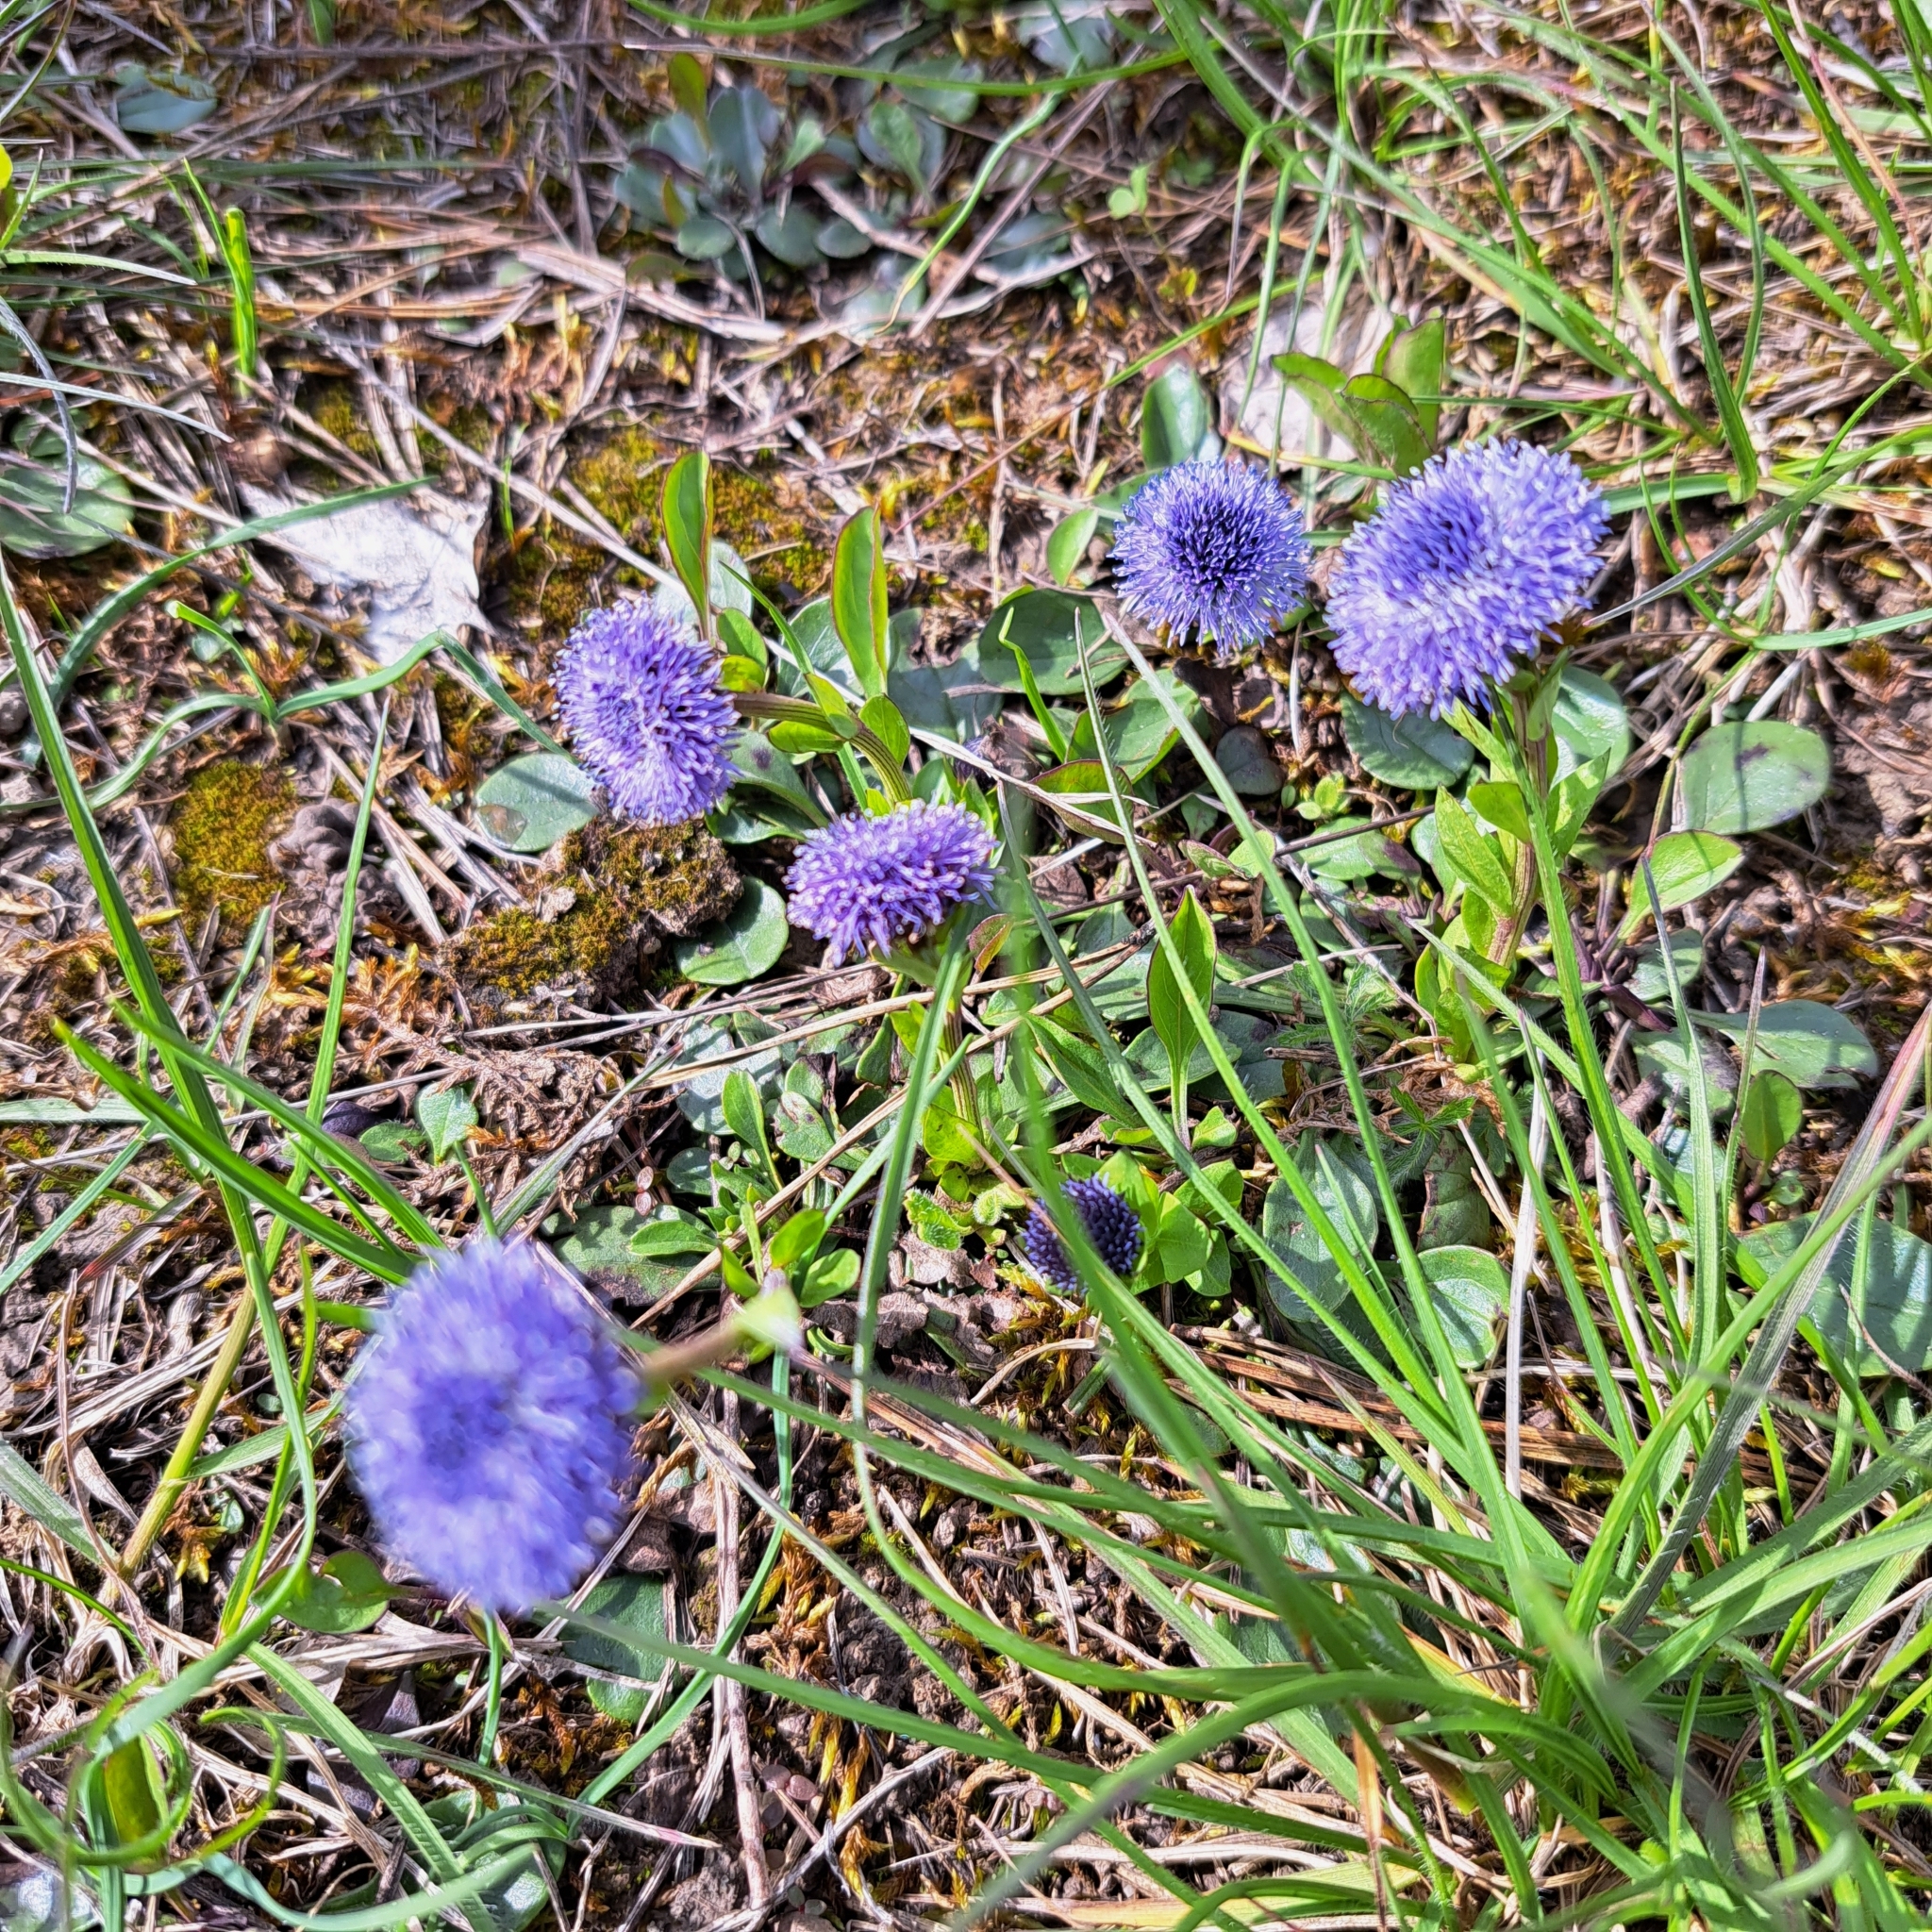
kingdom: Plantae
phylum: Tracheophyta
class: Magnoliopsida
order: Lamiales
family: Plantaginaceae
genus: Globularia
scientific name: Globularia bisnagarica
